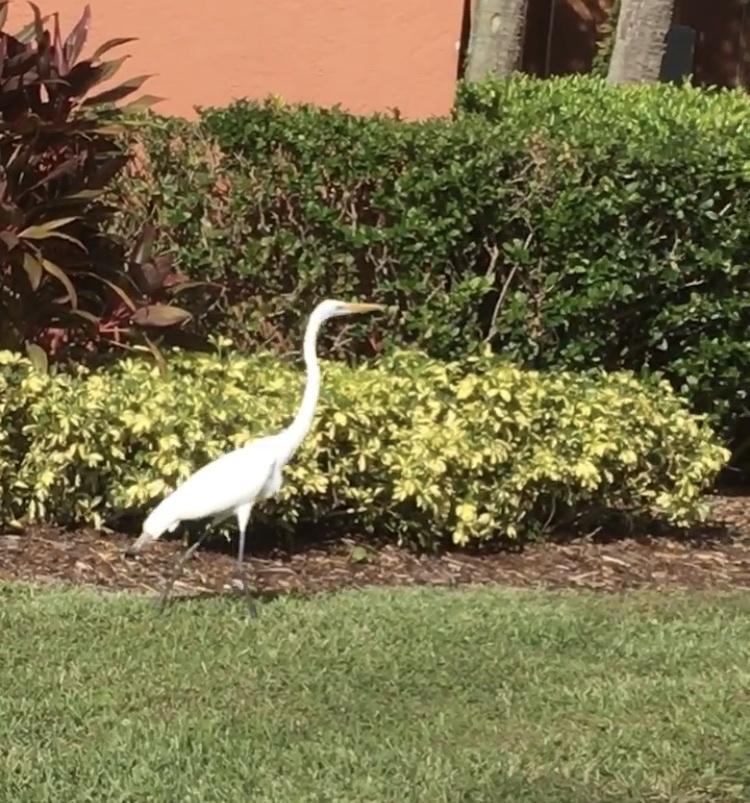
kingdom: Animalia
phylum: Chordata
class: Aves
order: Pelecaniformes
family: Ardeidae
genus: Ardea
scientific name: Ardea alba
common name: Great egret
